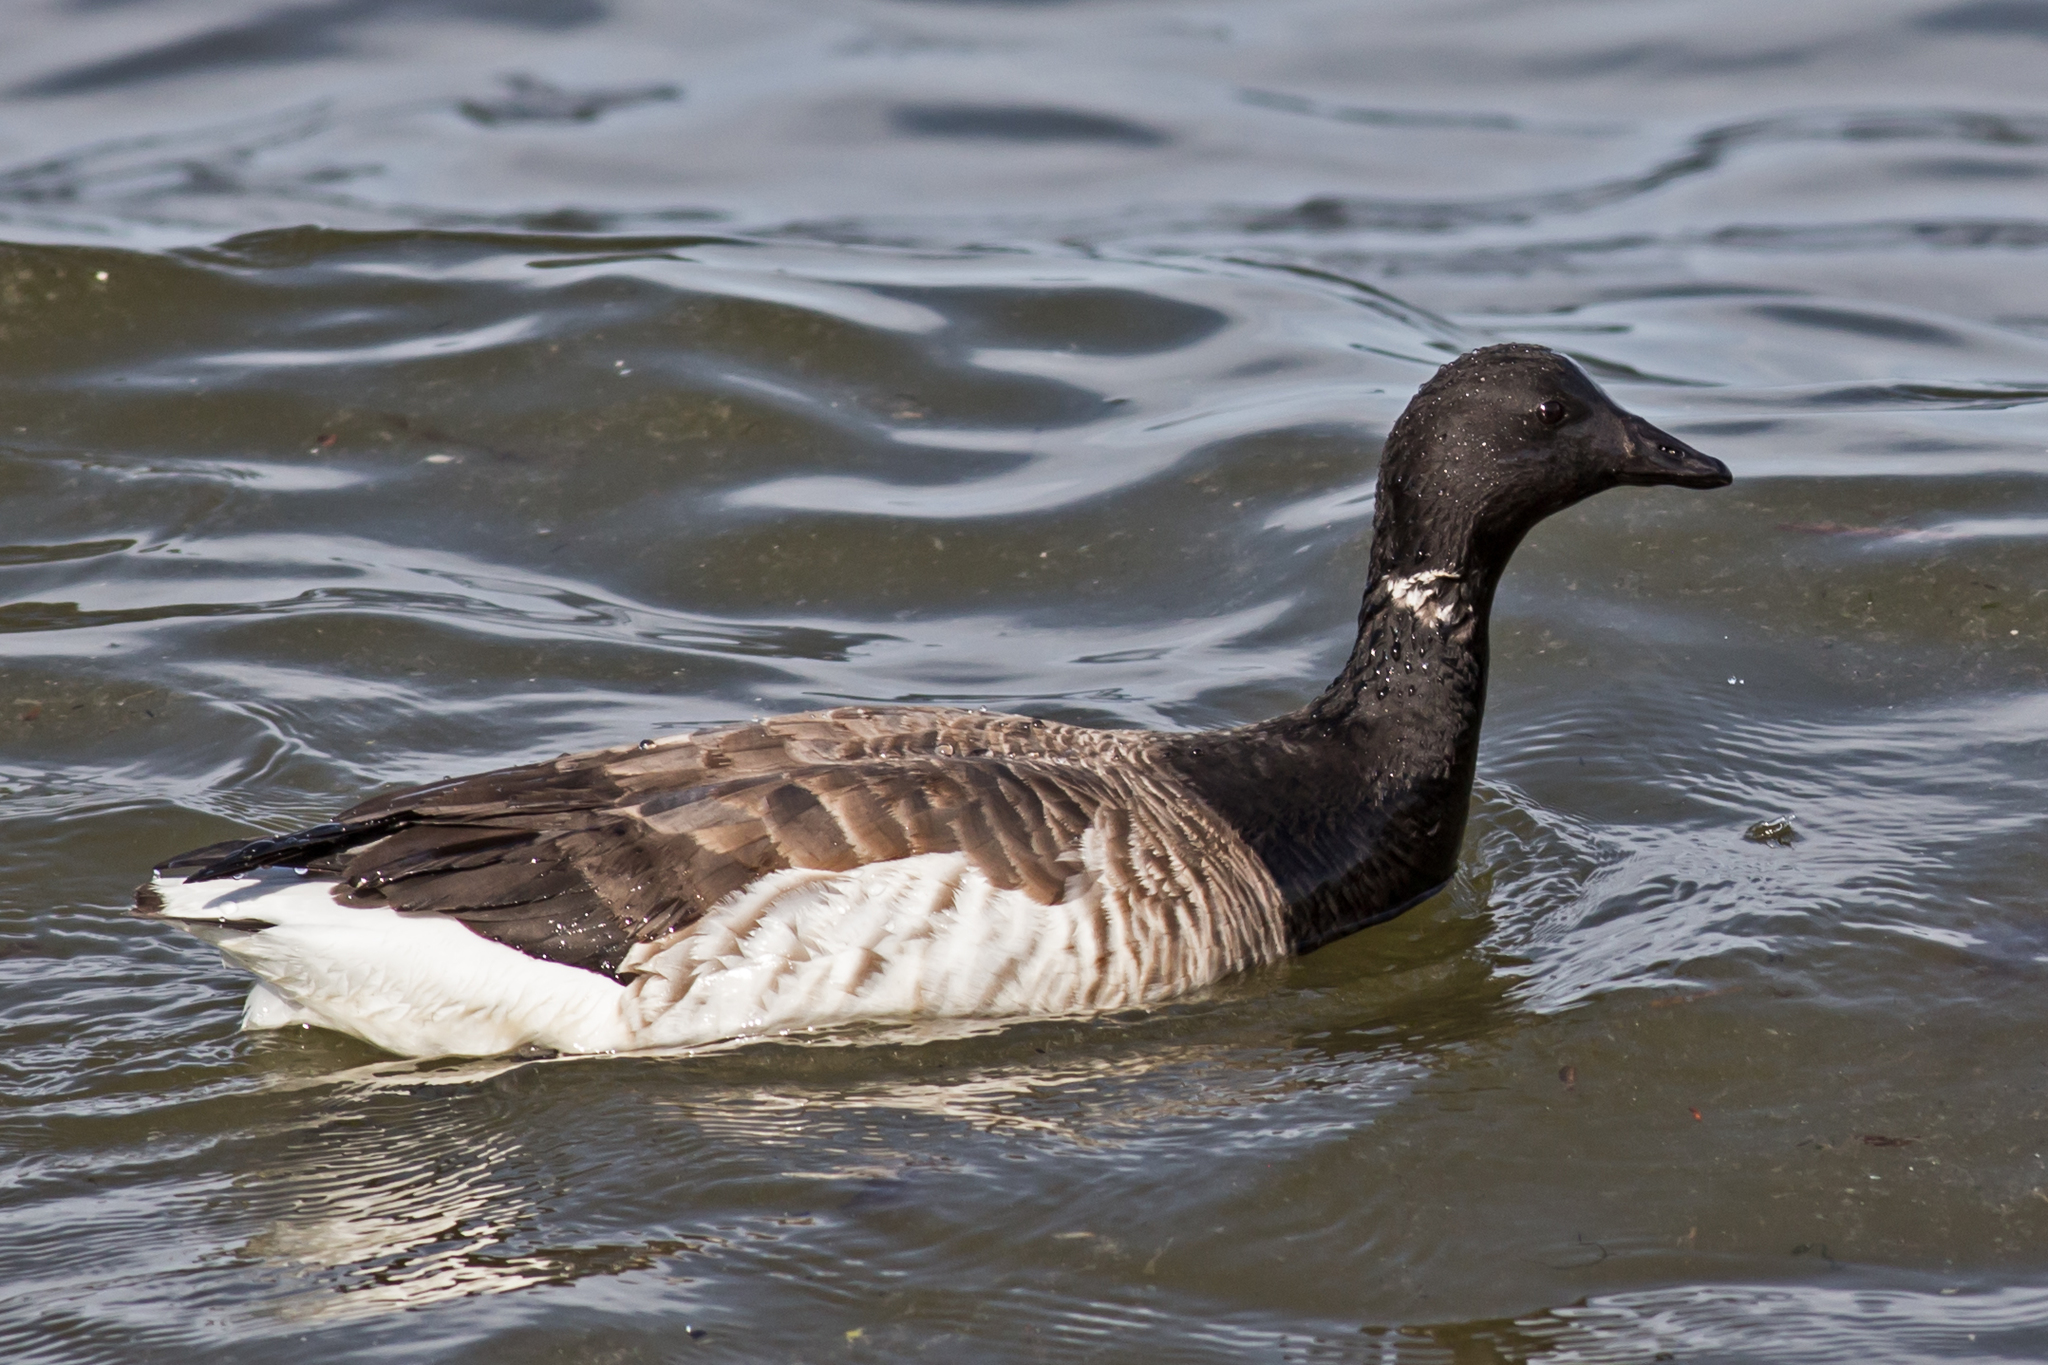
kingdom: Animalia
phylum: Chordata
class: Aves
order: Anseriformes
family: Anatidae
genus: Branta
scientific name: Branta bernicla
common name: Brant goose
